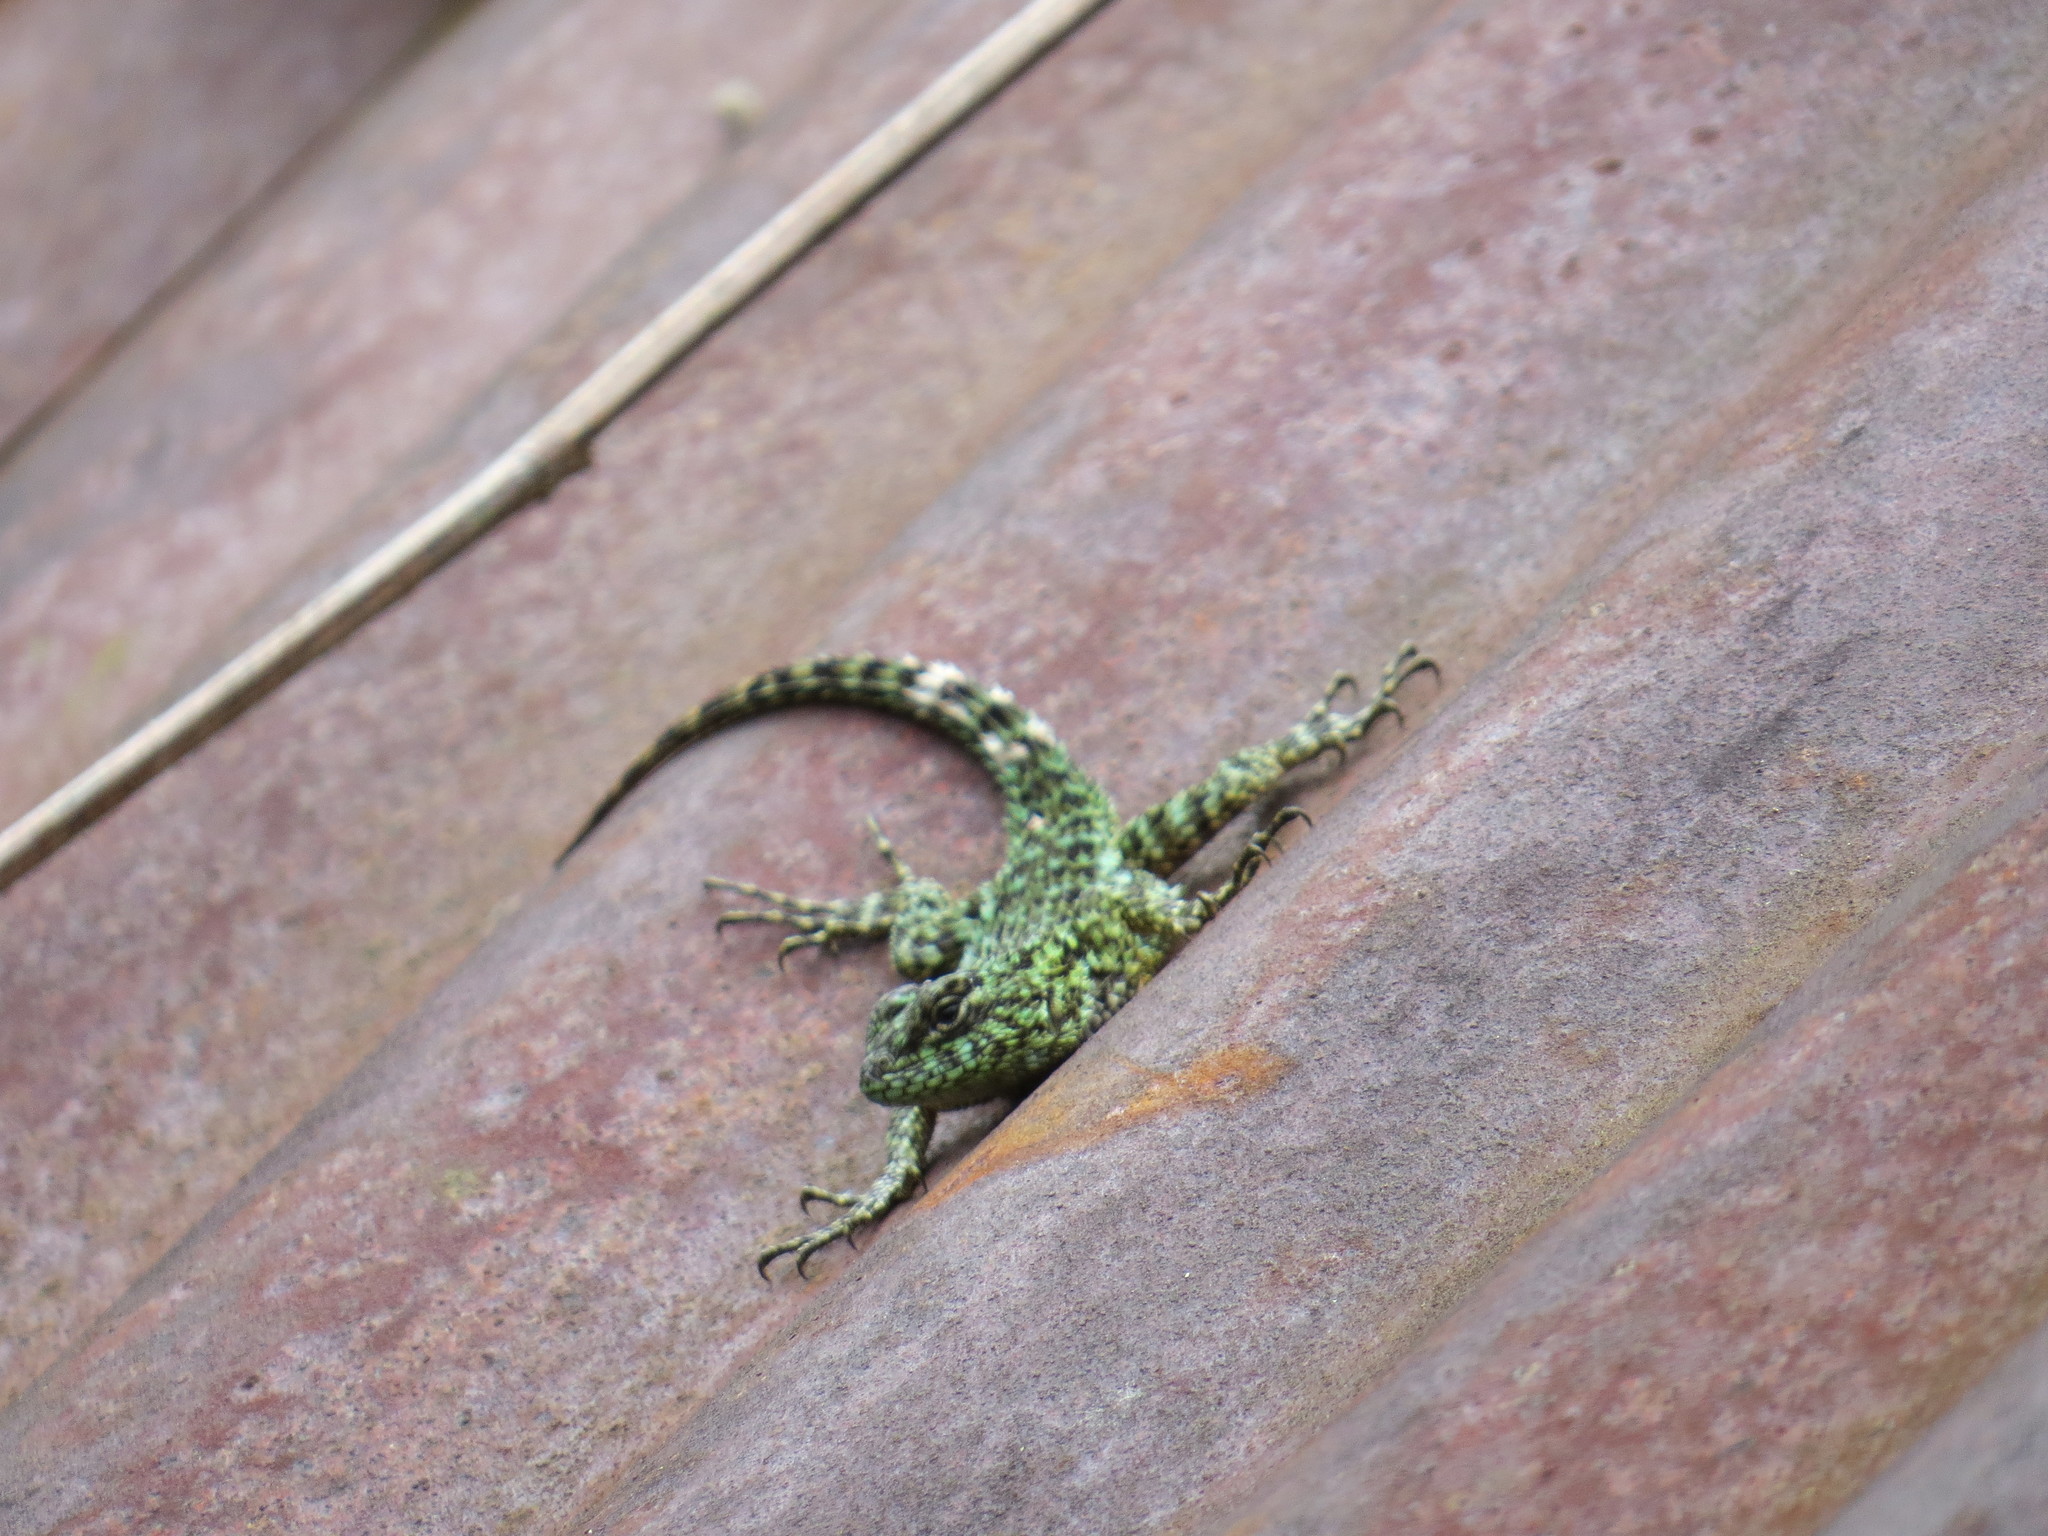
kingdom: Animalia
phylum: Chordata
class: Squamata
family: Phrynosomatidae
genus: Sceloporus
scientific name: Sceloporus malachiticus
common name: Green spiny lizard
